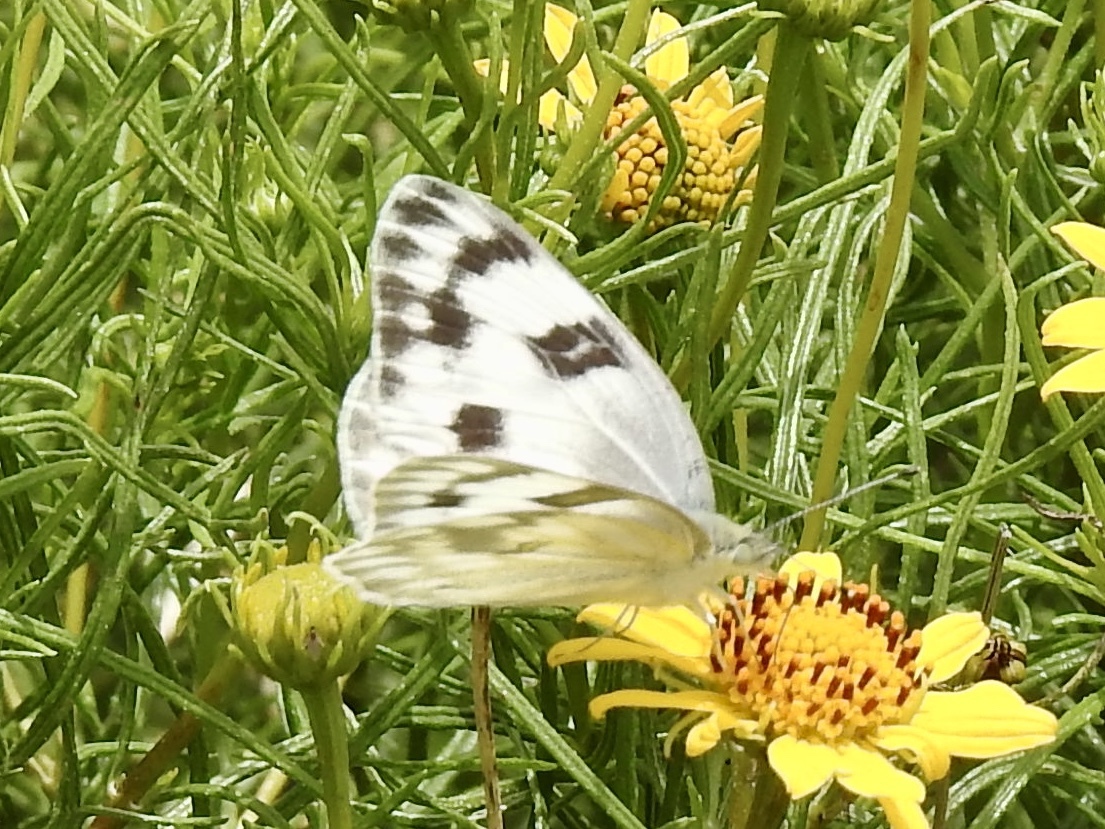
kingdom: Animalia
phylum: Arthropoda
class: Insecta
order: Lepidoptera
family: Pieridae
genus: Pontia
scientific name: Pontia protodice
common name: Checkered white
